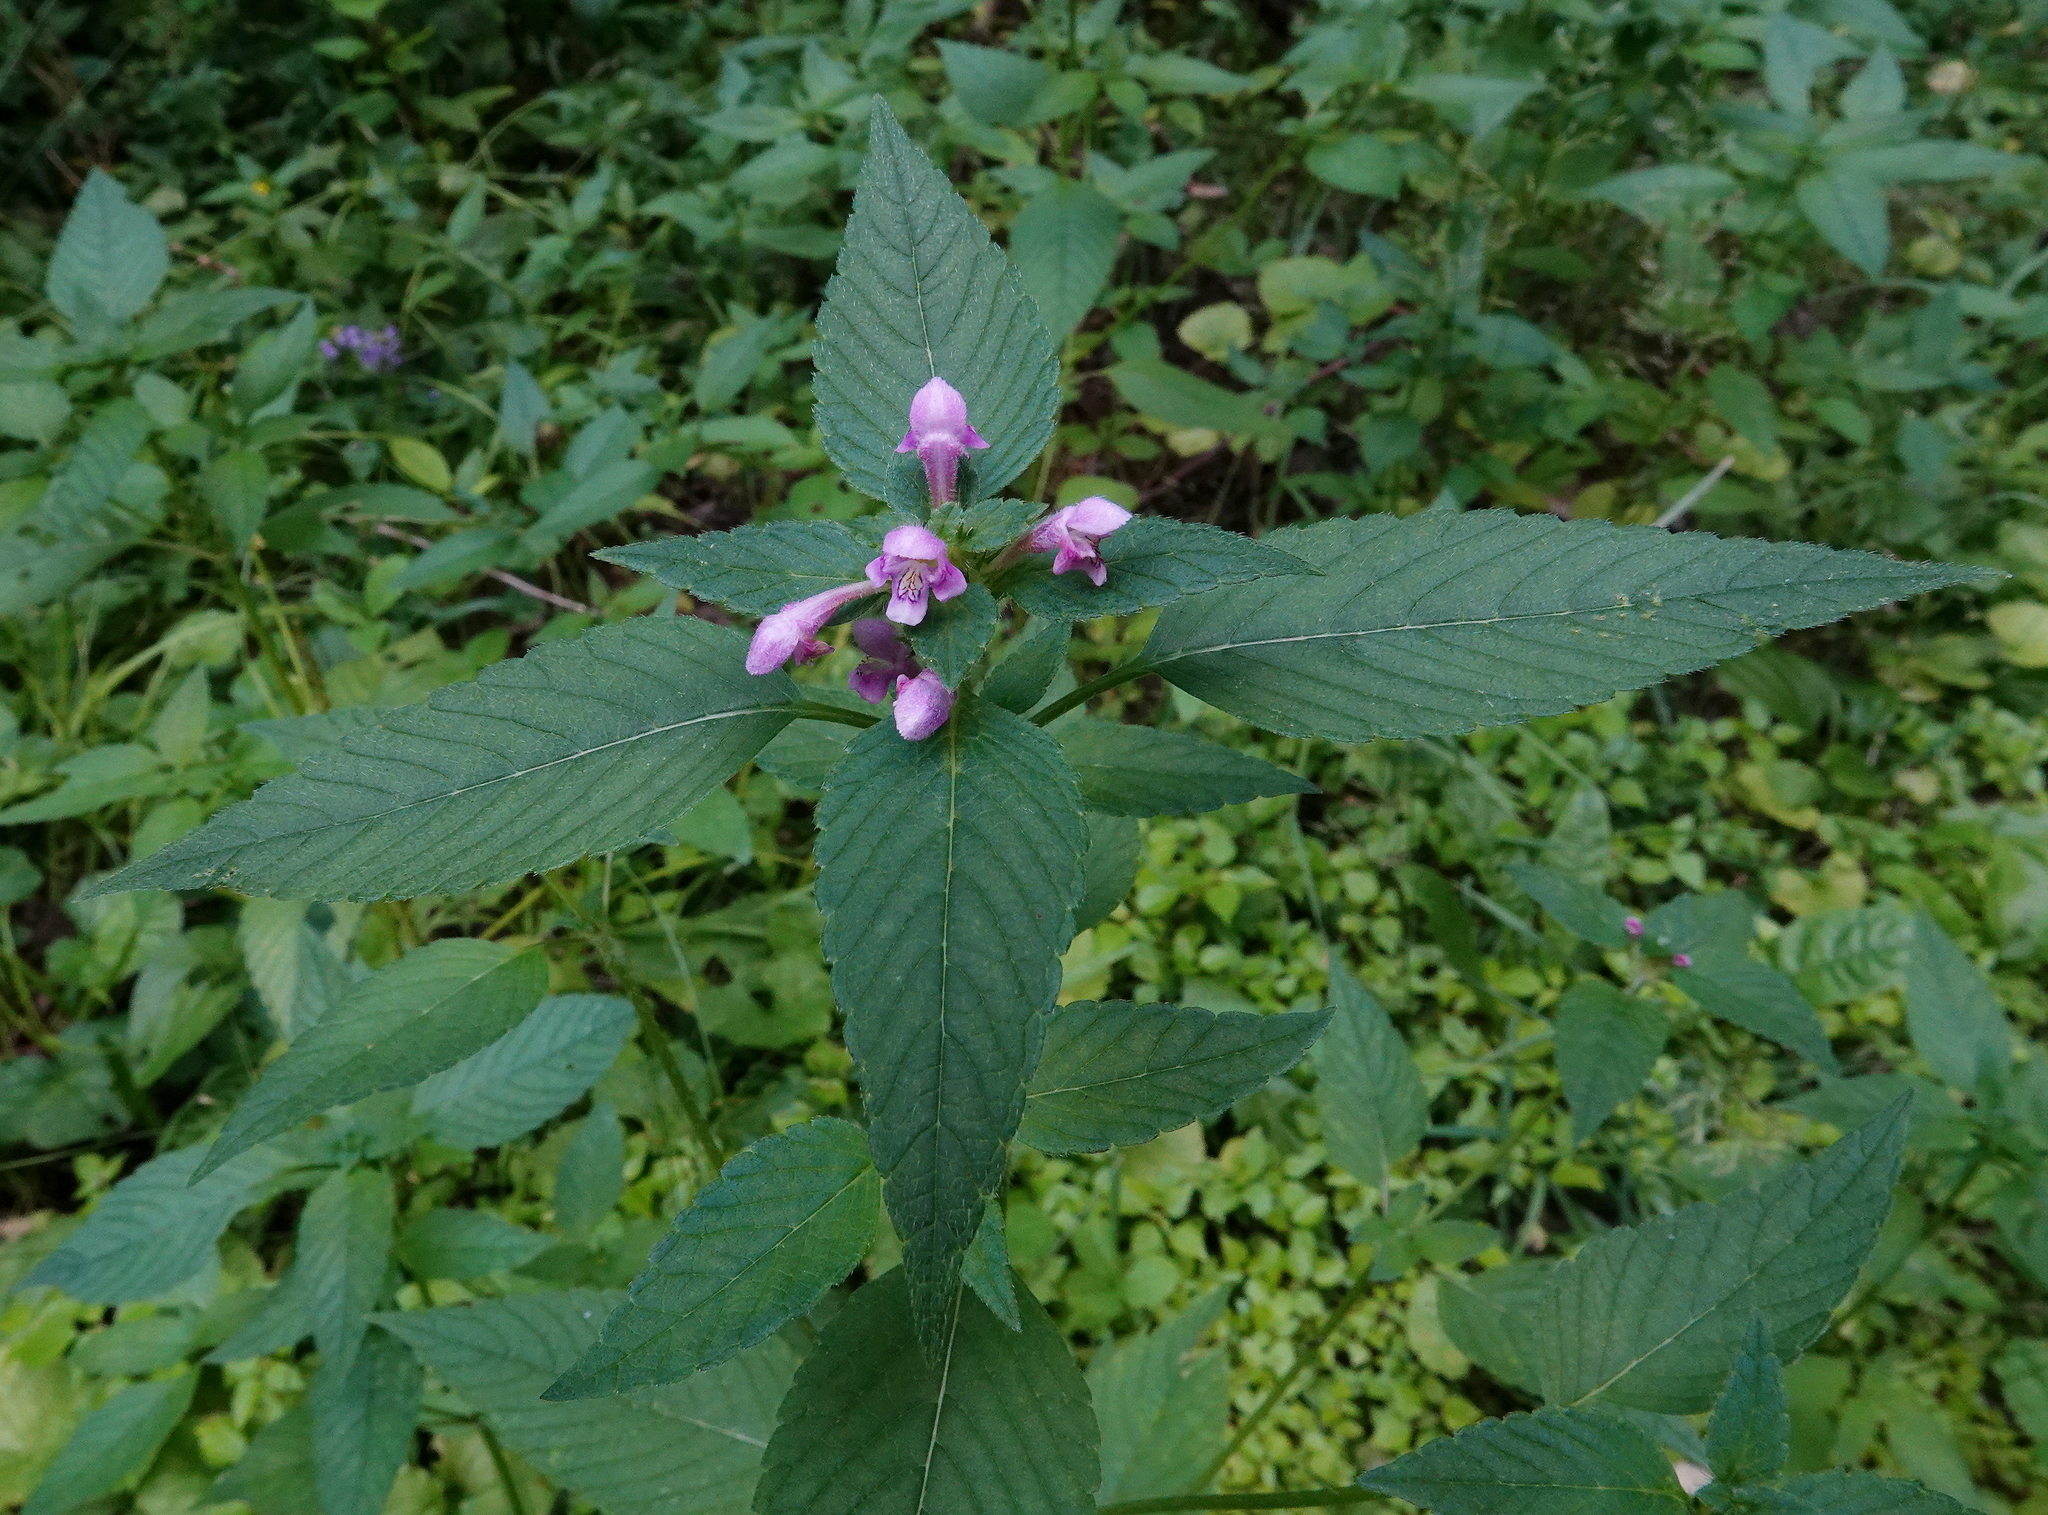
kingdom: Plantae
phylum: Tracheophyta
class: Magnoliopsida
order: Lamiales
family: Lamiaceae
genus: Galeopsis
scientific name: Galeopsis tetrahit
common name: Common hemp-nettle
